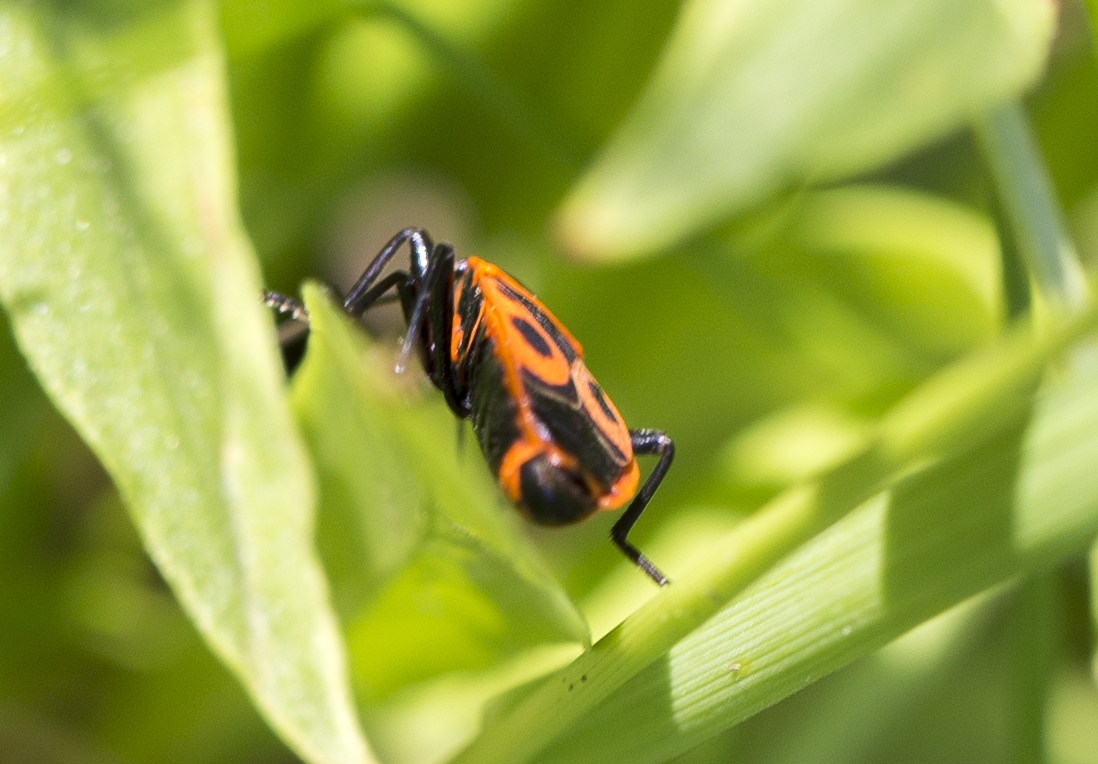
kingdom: Animalia
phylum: Arthropoda
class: Insecta
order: Hemiptera
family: Pyrrhocoridae
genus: Pyrrhocoris
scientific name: Pyrrhocoris apterus
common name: Firebug
